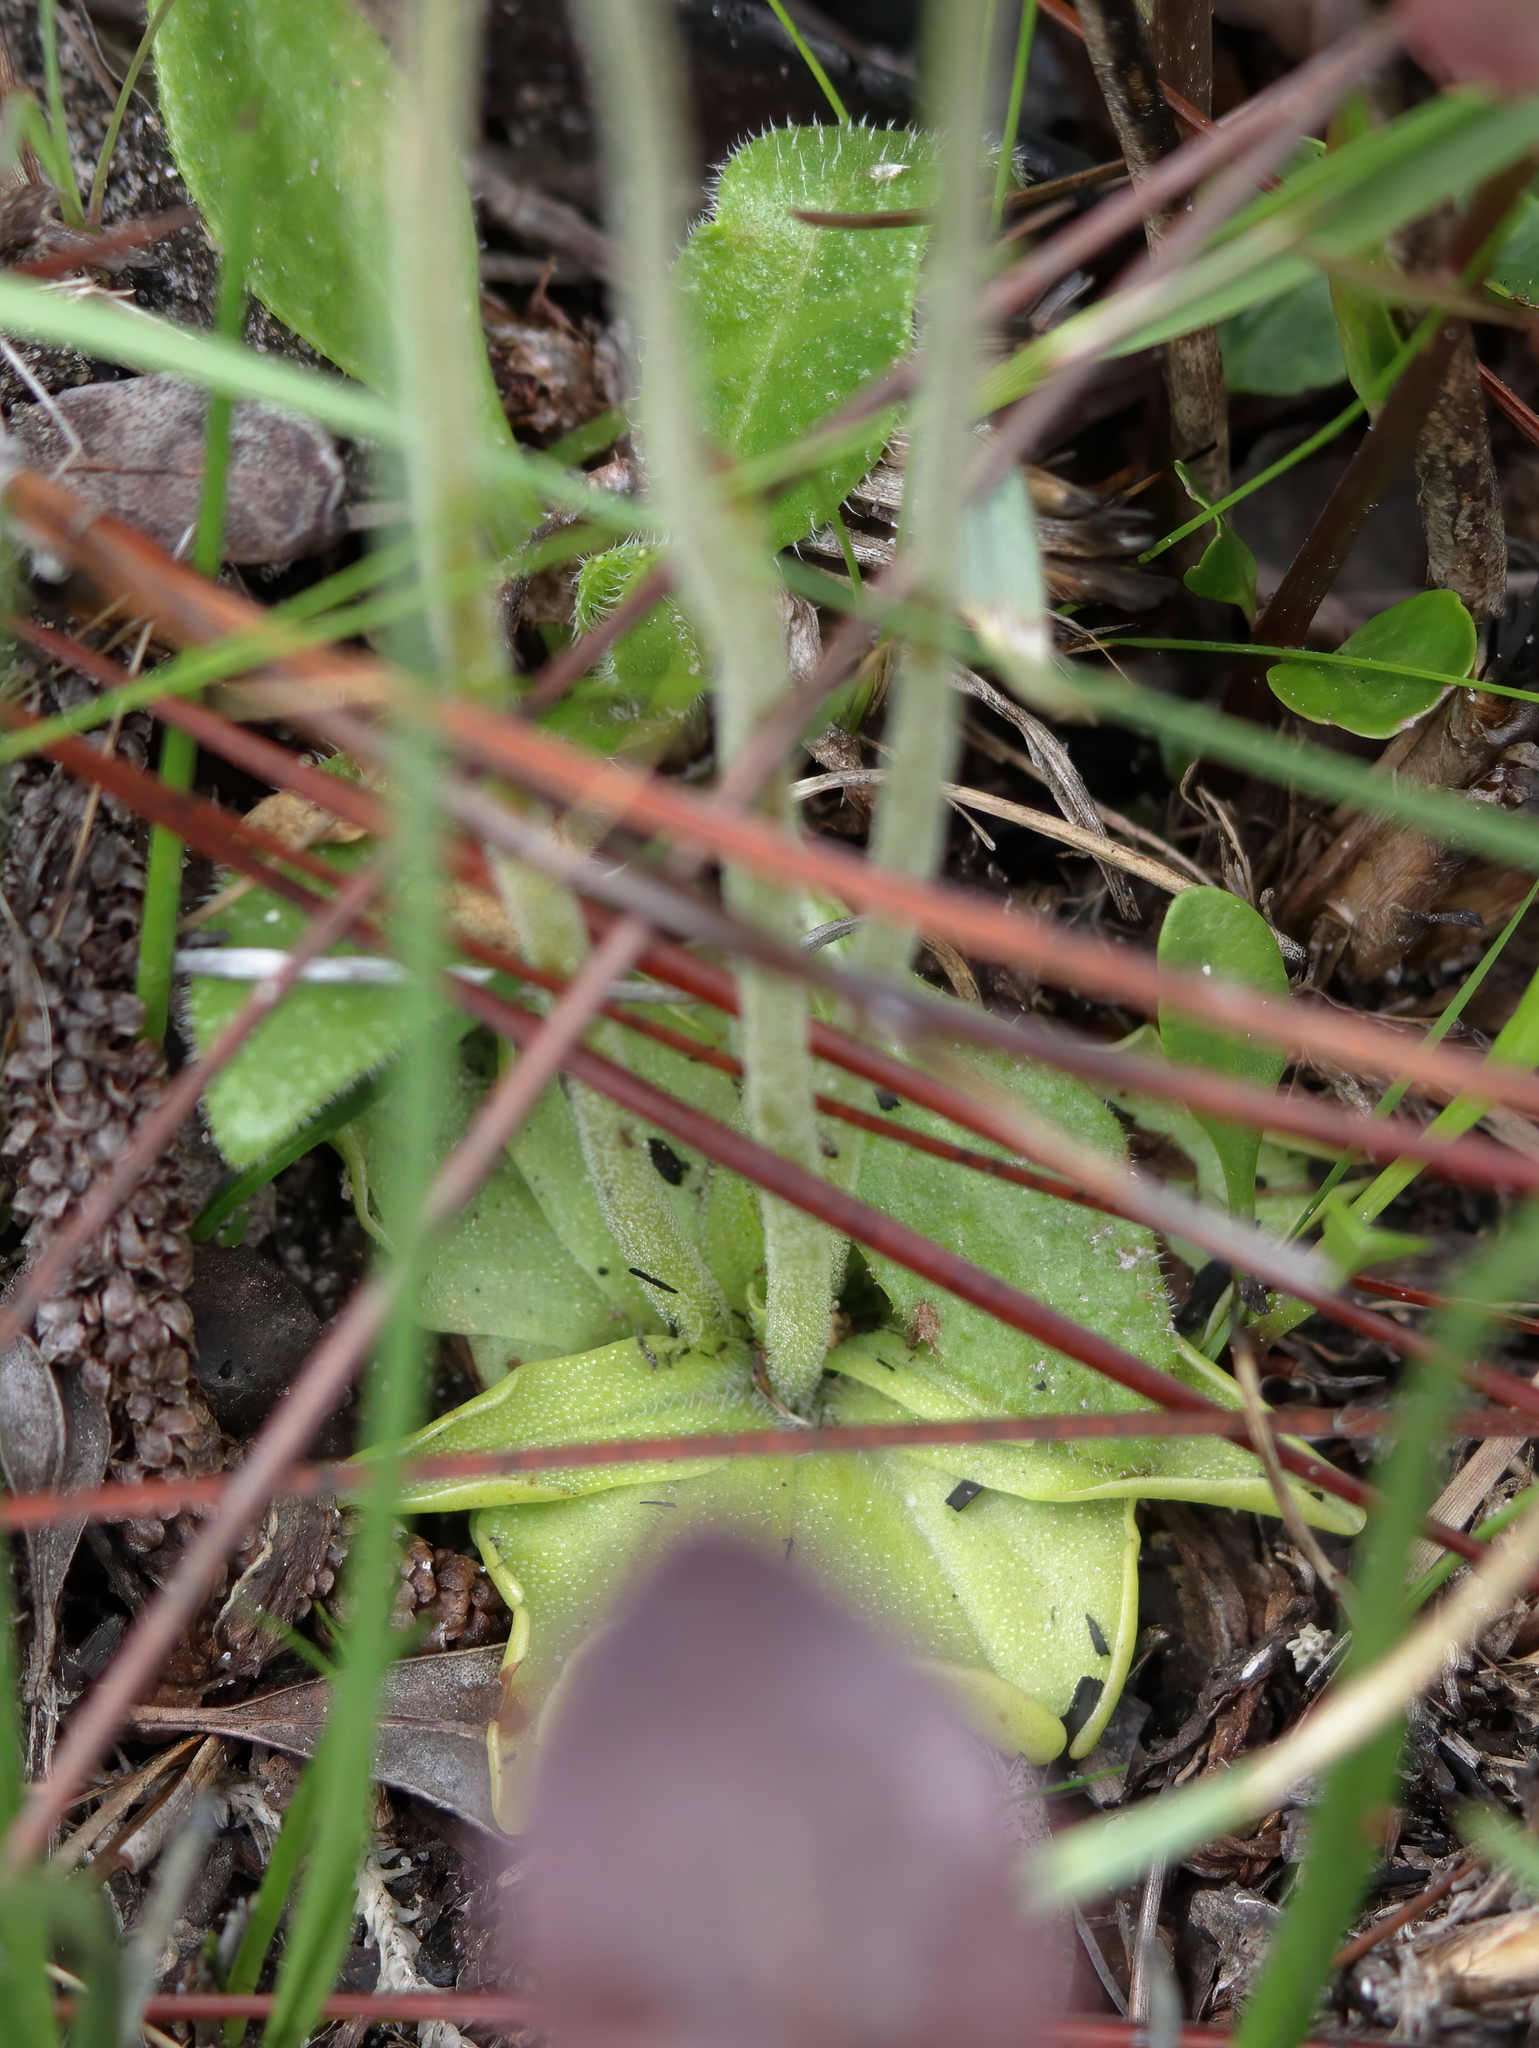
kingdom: Plantae
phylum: Tracheophyta
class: Magnoliopsida
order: Lamiales
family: Lentibulariaceae
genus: Pinguicula
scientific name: Pinguicula lutea
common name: Yellow butterwort
